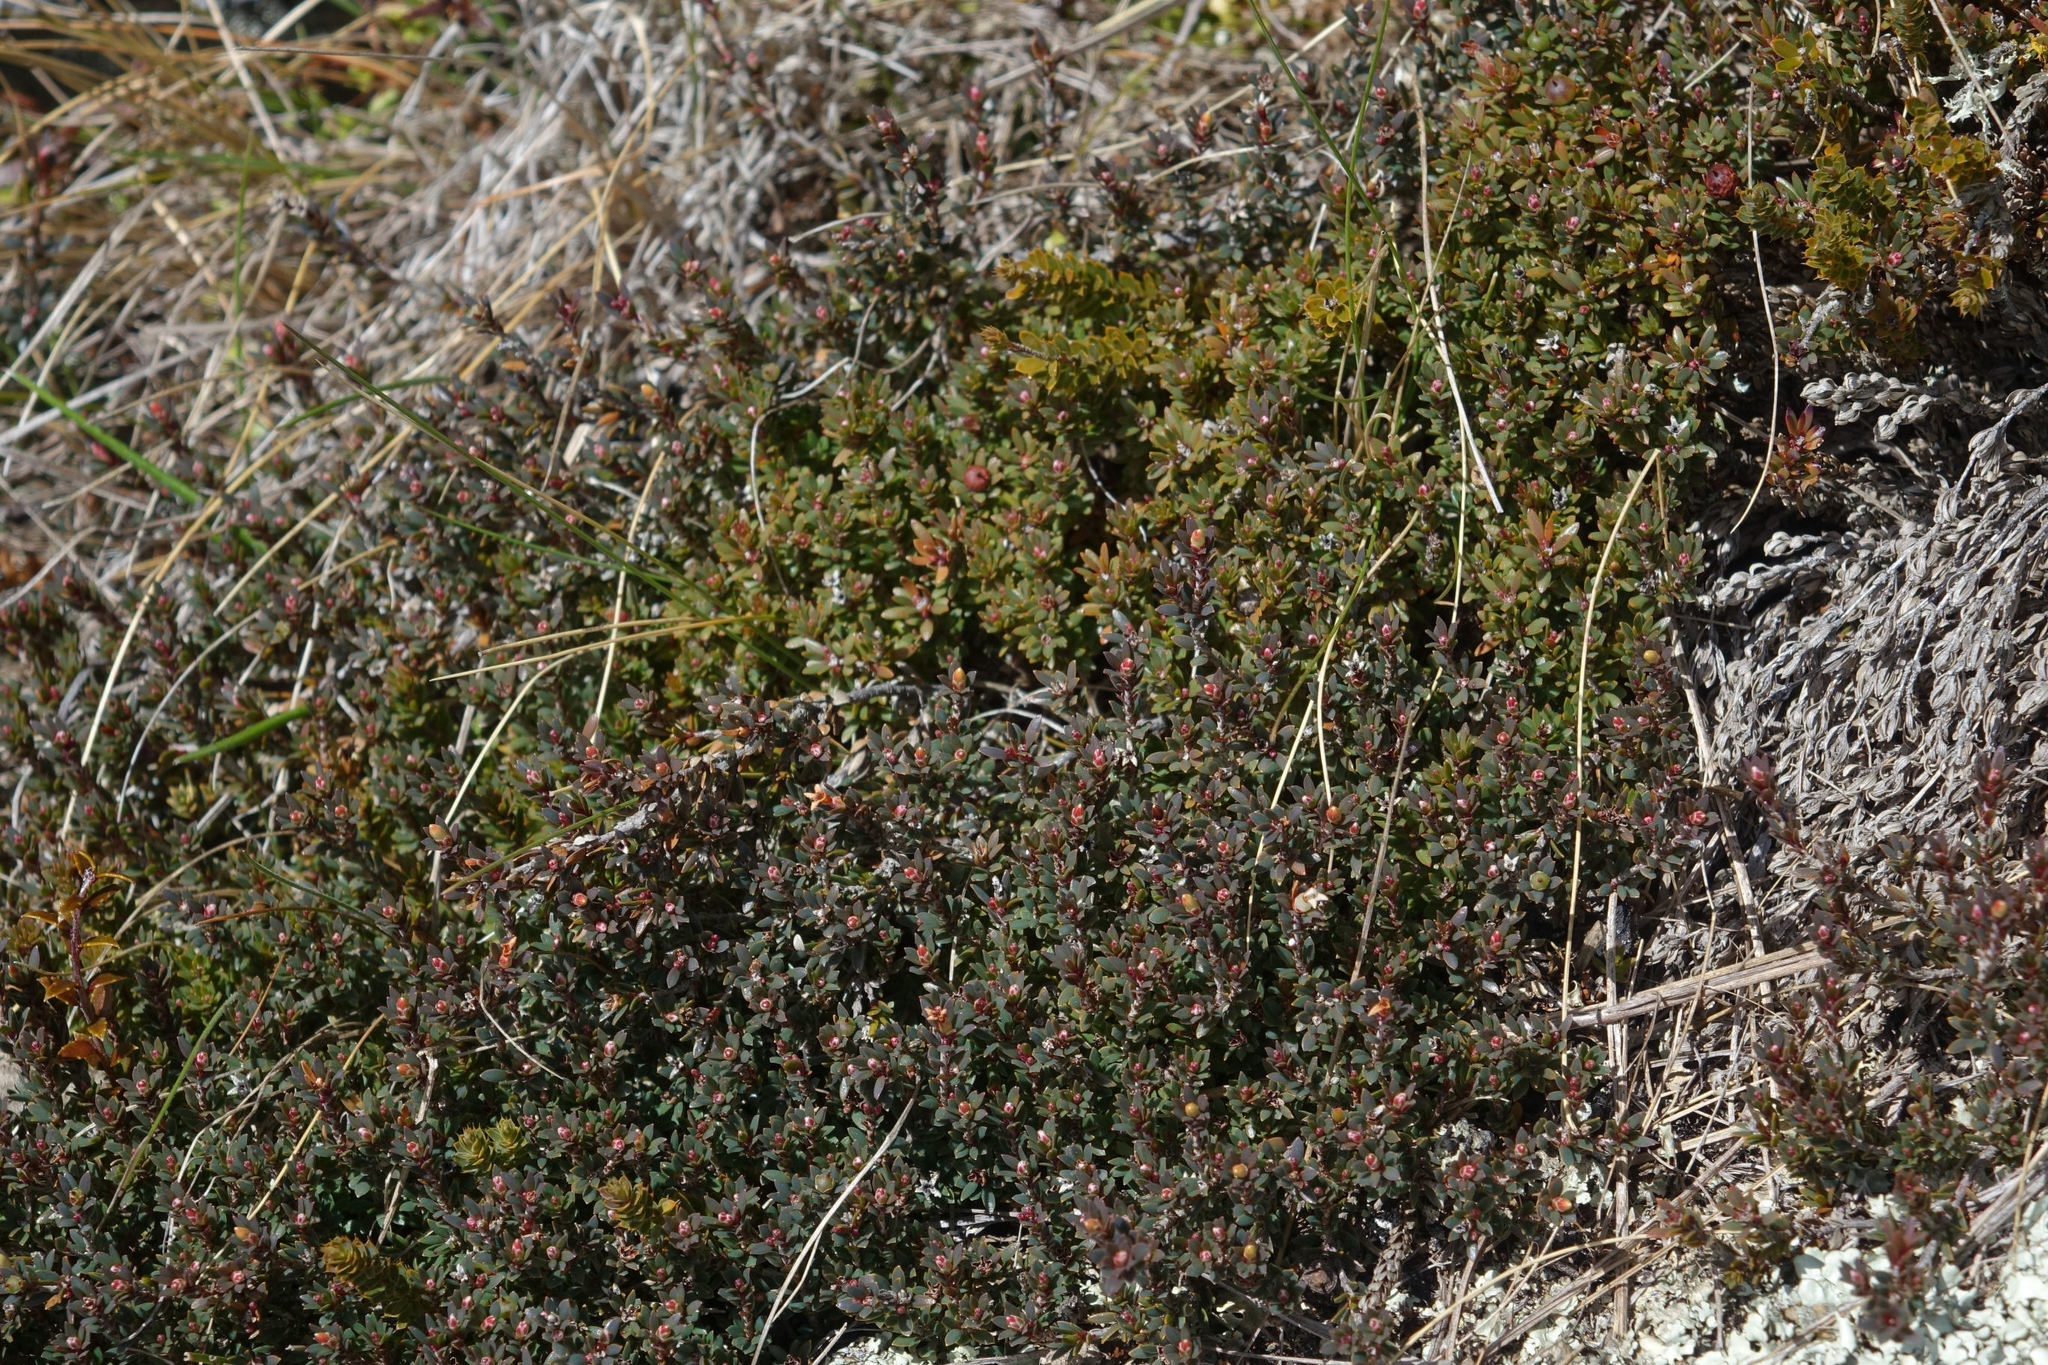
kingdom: Plantae
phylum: Tracheophyta
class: Magnoliopsida
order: Ericales
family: Ericaceae
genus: Pentachondra
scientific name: Pentachondra pumila
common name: Carpet-heath
